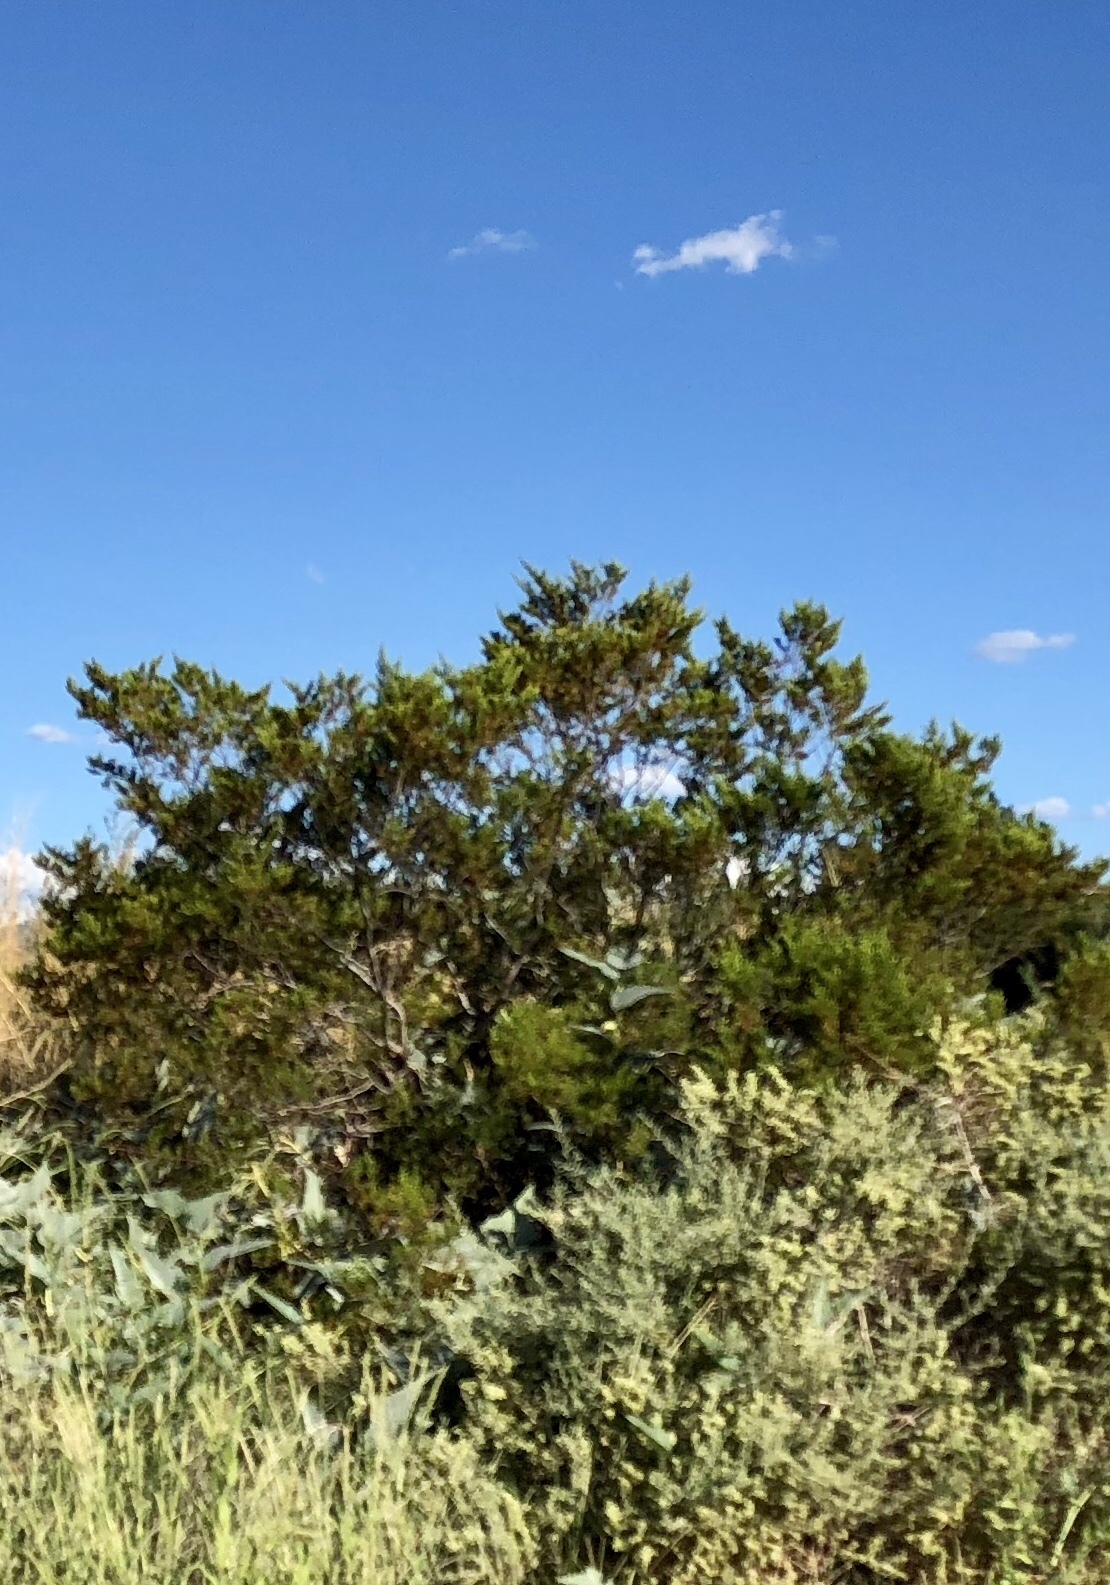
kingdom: Plantae
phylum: Tracheophyta
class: Magnoliopsida
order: Zygophyllales
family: Zygophyllaceae
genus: Larrea
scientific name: Larrea tridentata
